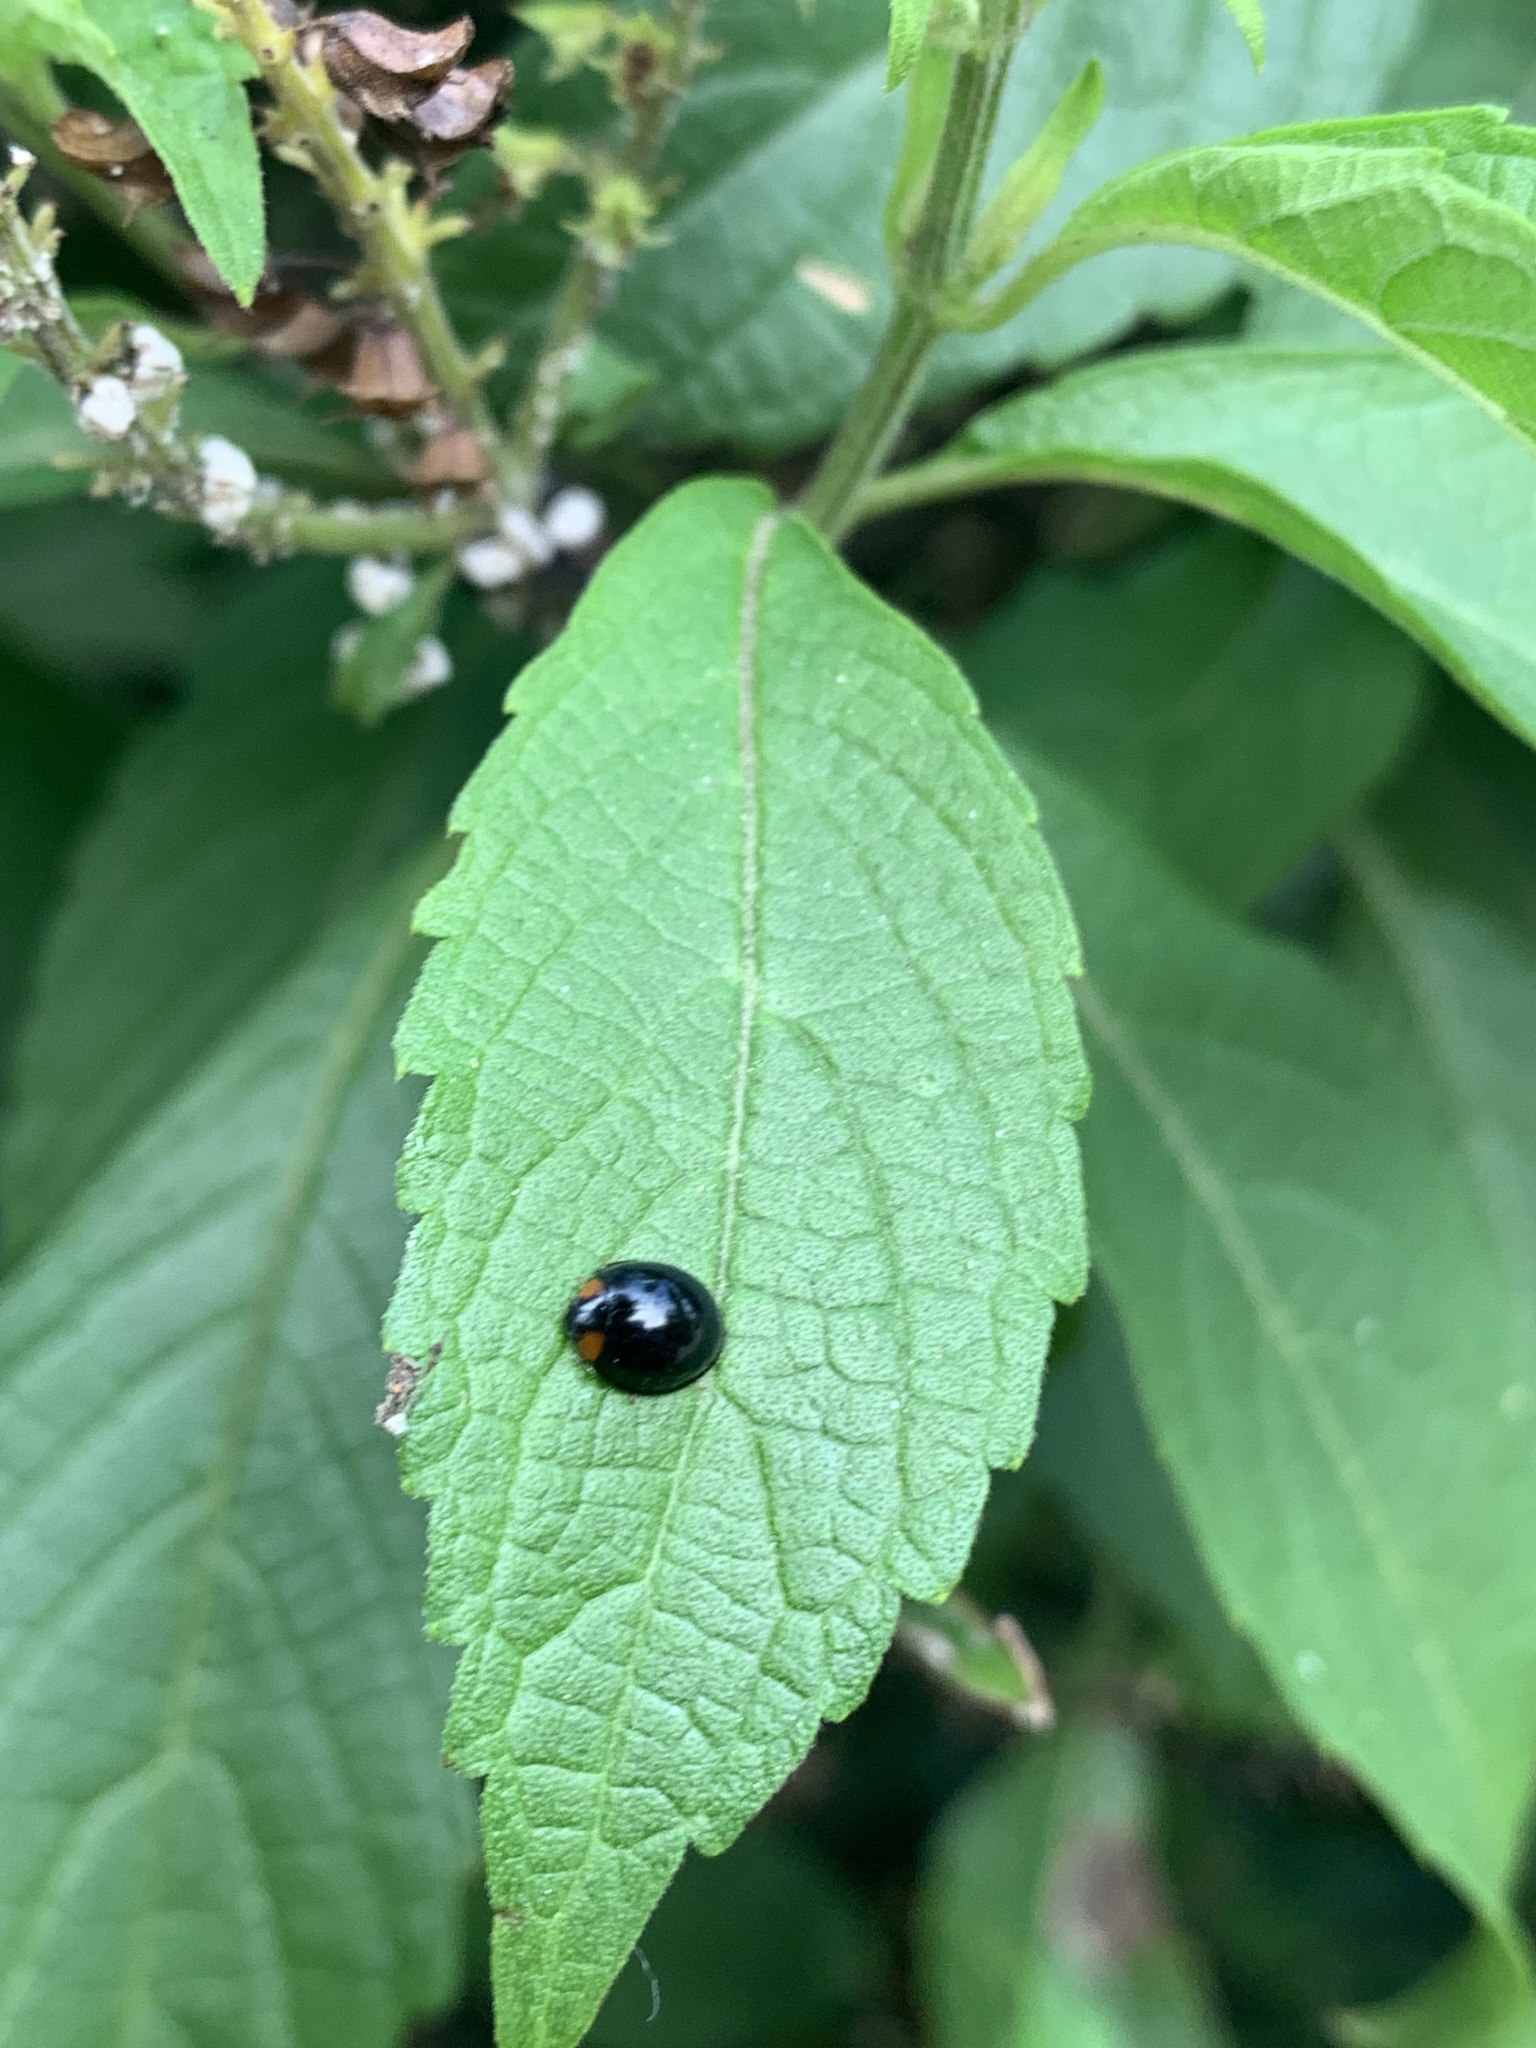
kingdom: Animalia
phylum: Arthropoda
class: Insecta
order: Coleoptera
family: Coccinellidae
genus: Curinus
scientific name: Curinus coeruleus
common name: Ladybird beetle
